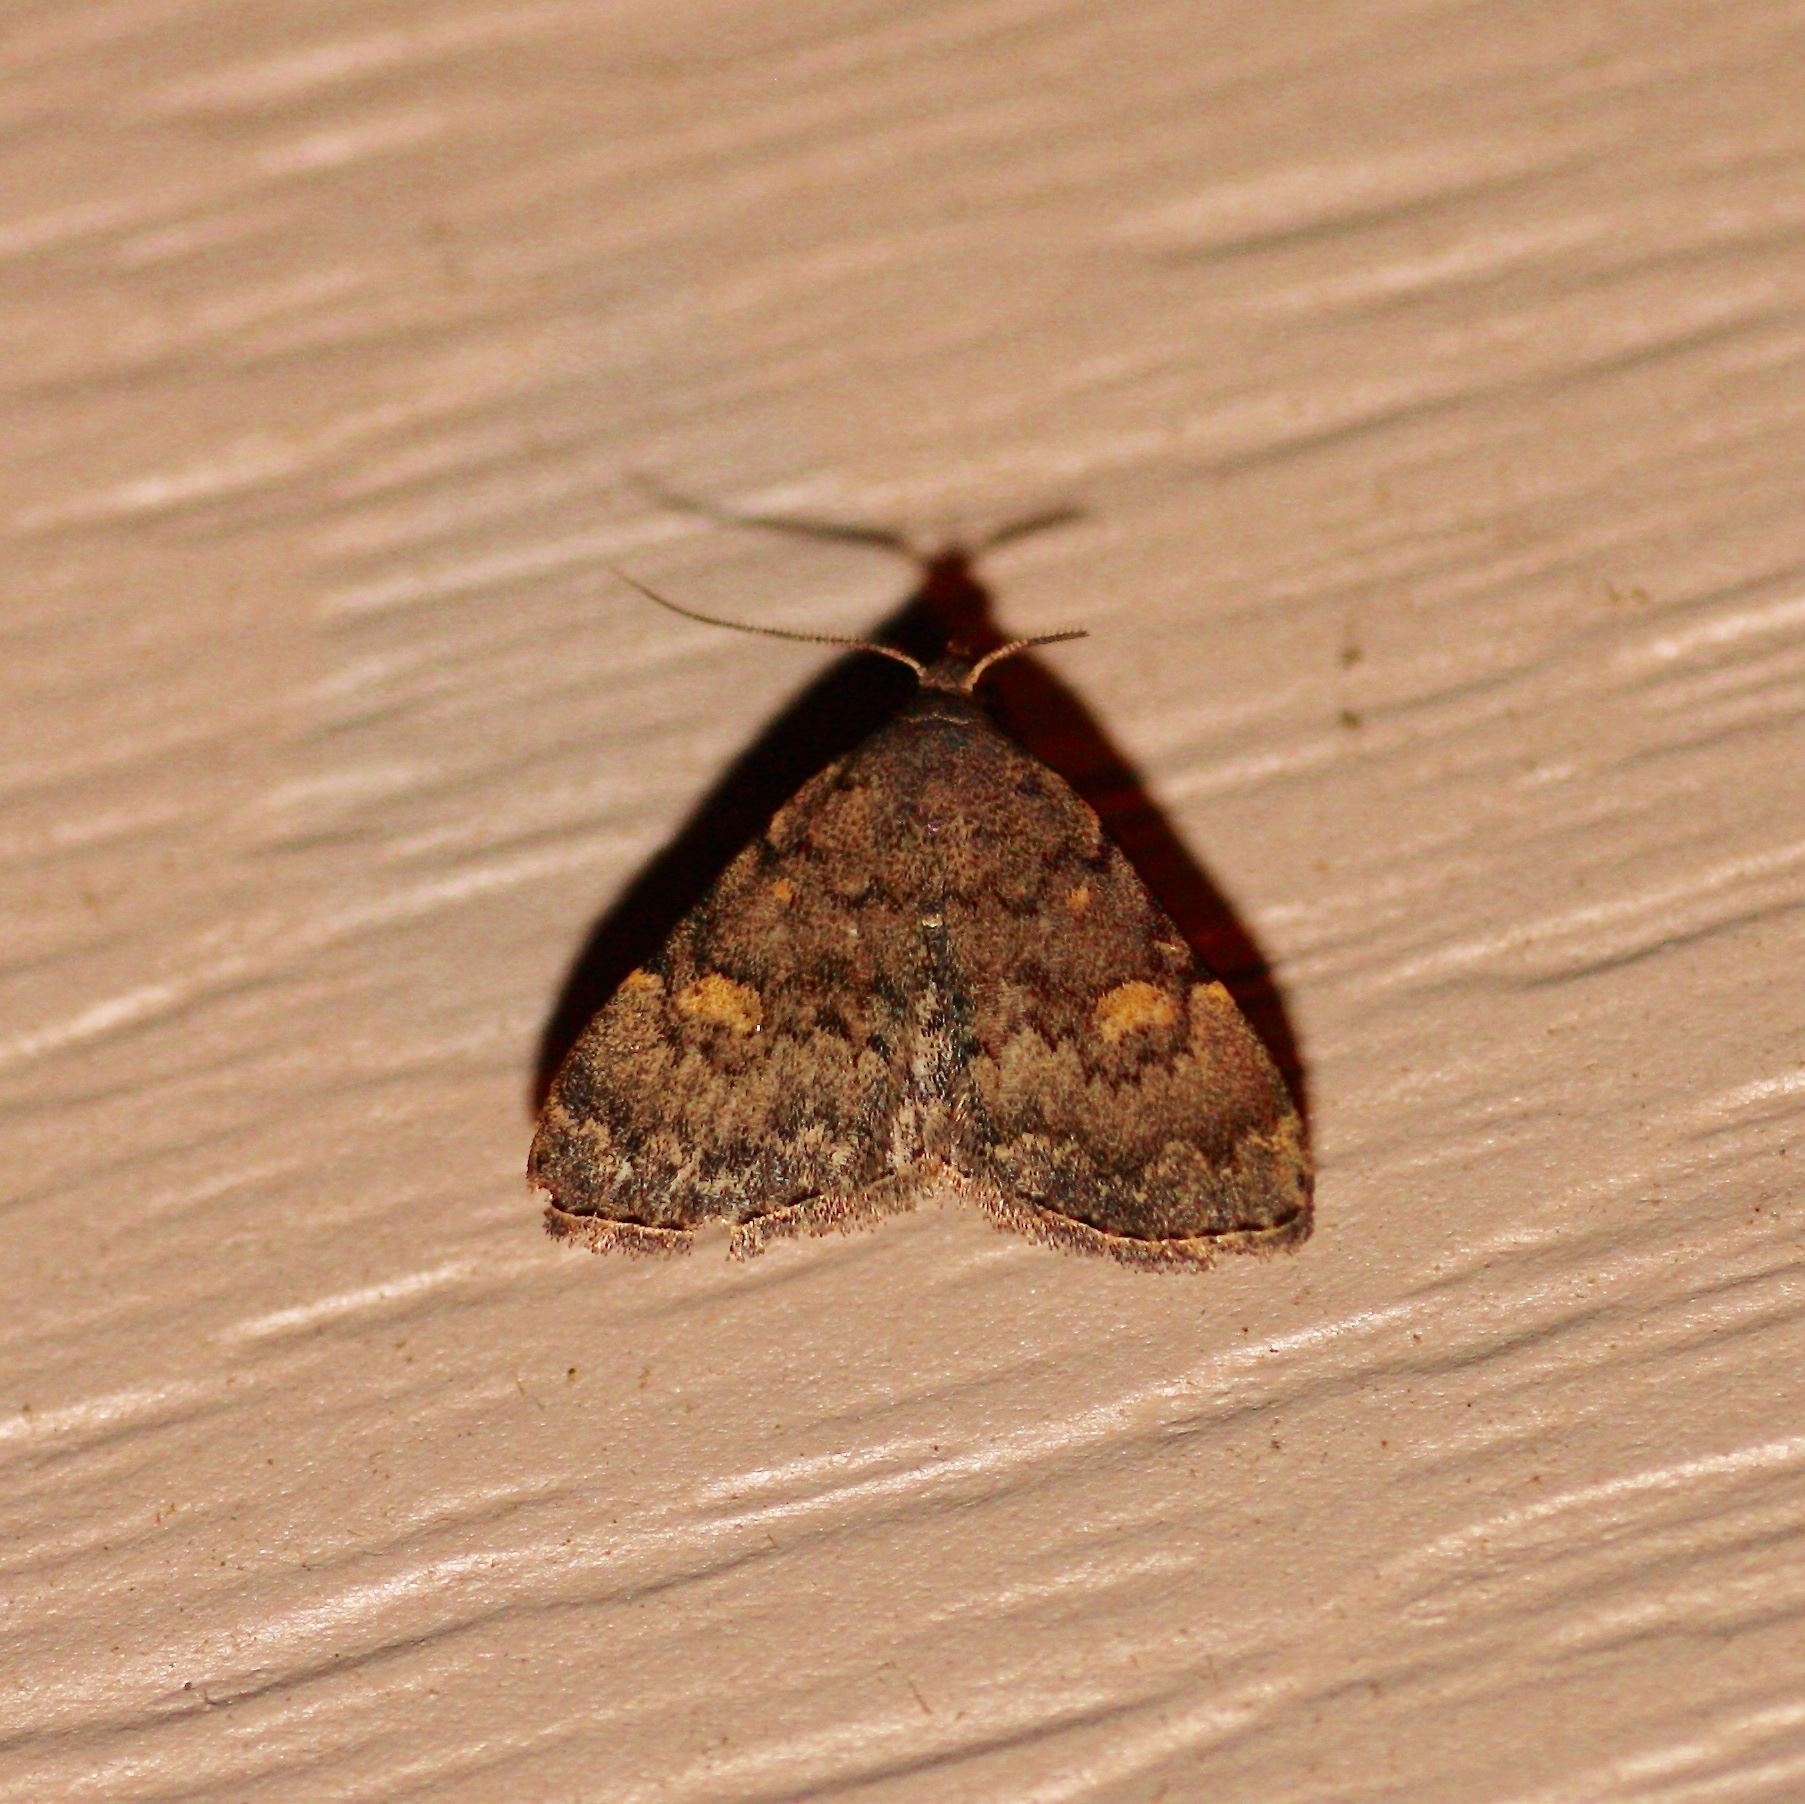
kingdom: Animalia
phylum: Arthropoda
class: Insecta
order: Lepidoptera
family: Erebidae
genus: Idia
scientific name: Idia aemula
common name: Common idia moth
